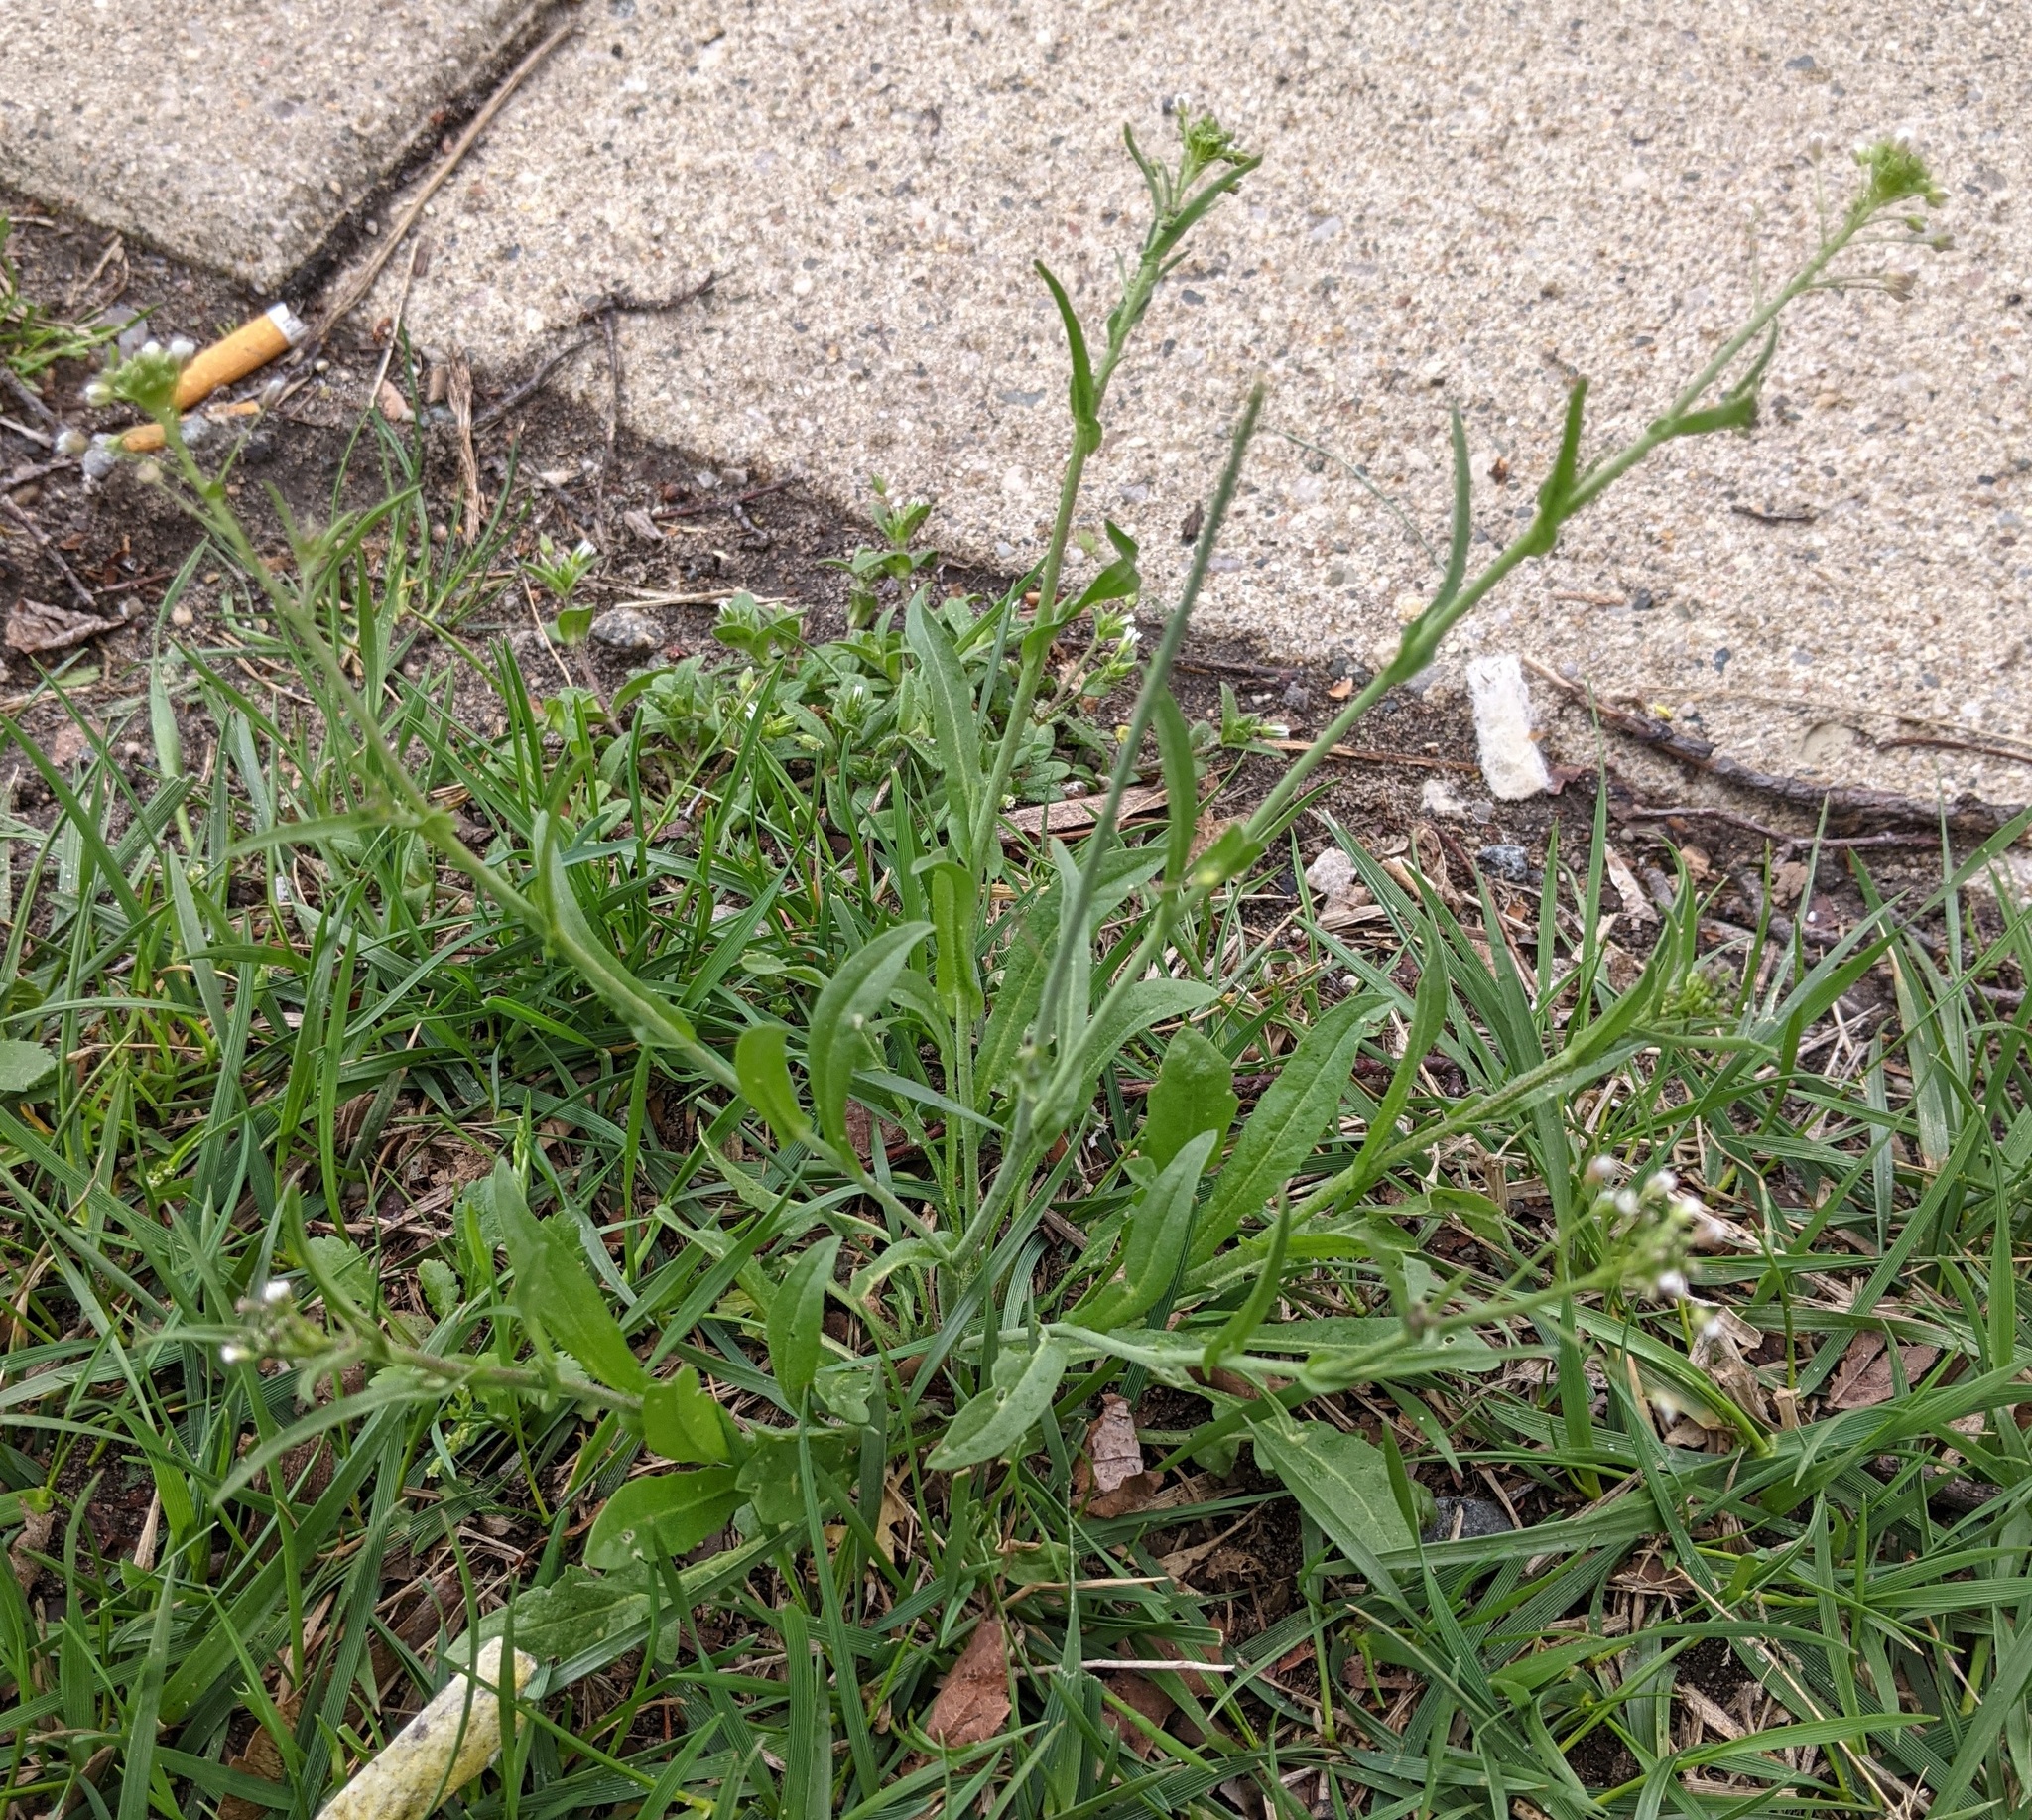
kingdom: Plantae
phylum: Tracheophyta
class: Magnoliopsida
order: Brassicales
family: Brassicaceae
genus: Capsella
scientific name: Capsella bursa-pastoris
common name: Shepherd's purse
